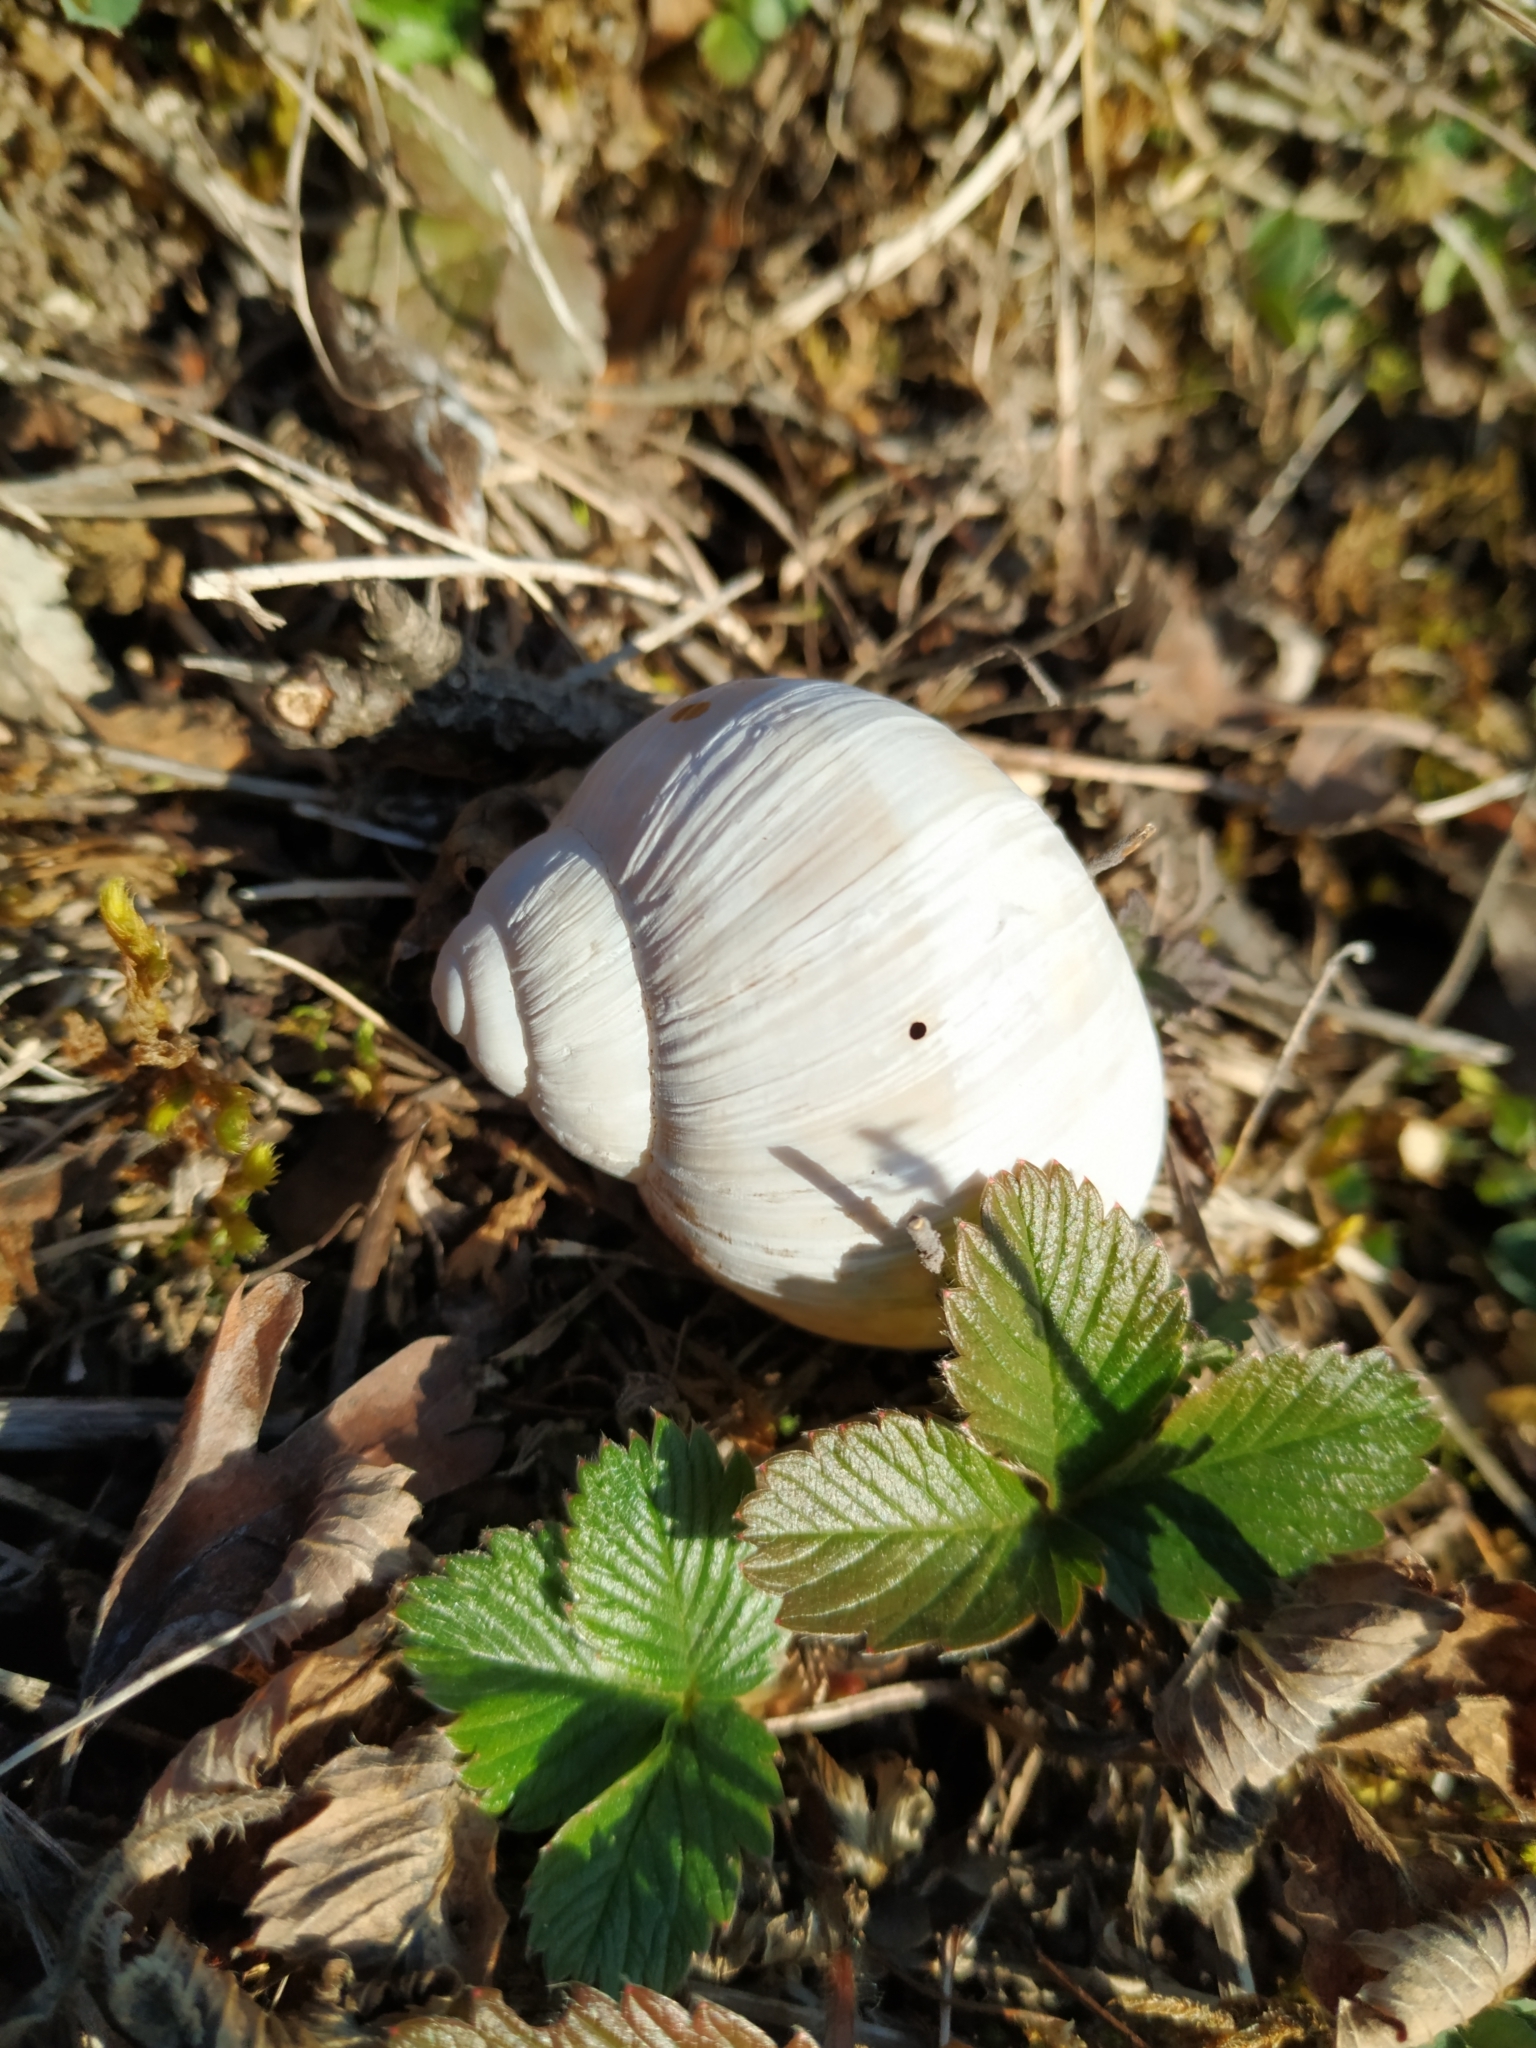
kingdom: Animalia
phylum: Mollusca
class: Gastropoda
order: Stylommatophora
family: Helicidae
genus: Helix
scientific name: Helix pomatia
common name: Roman snail
